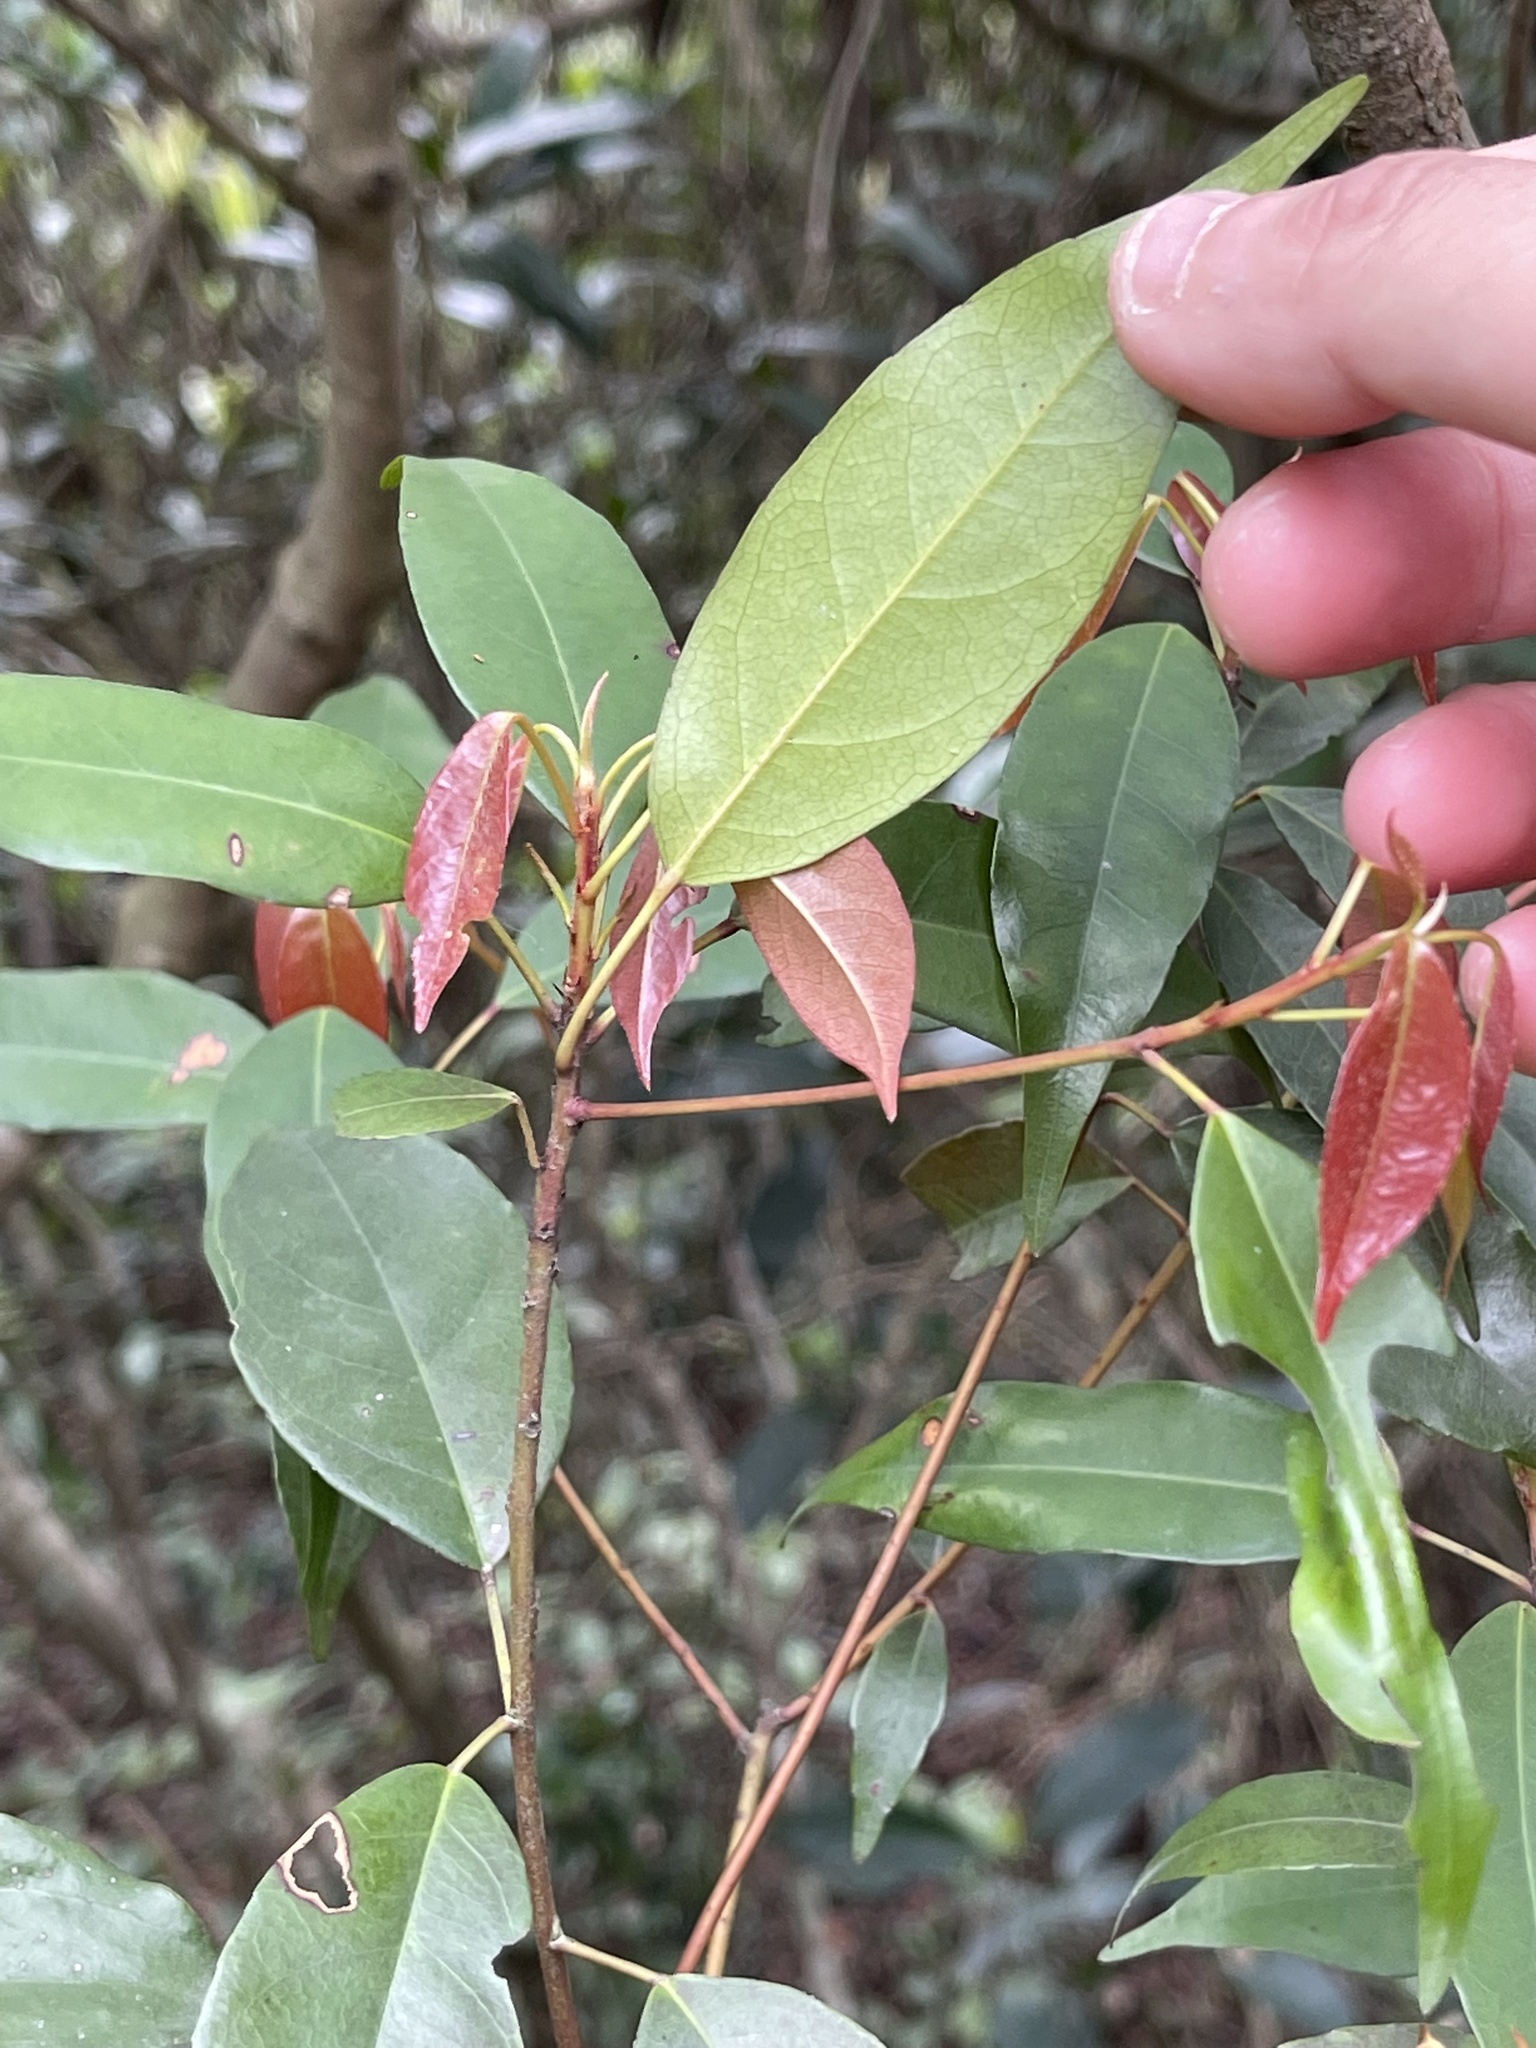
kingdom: Plantae
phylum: Tracheophyta
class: Magnoliopsida
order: Oxalidales
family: Elaeocarpaceae
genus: Elaeocarpus
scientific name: Elaeocarpus chinensis
